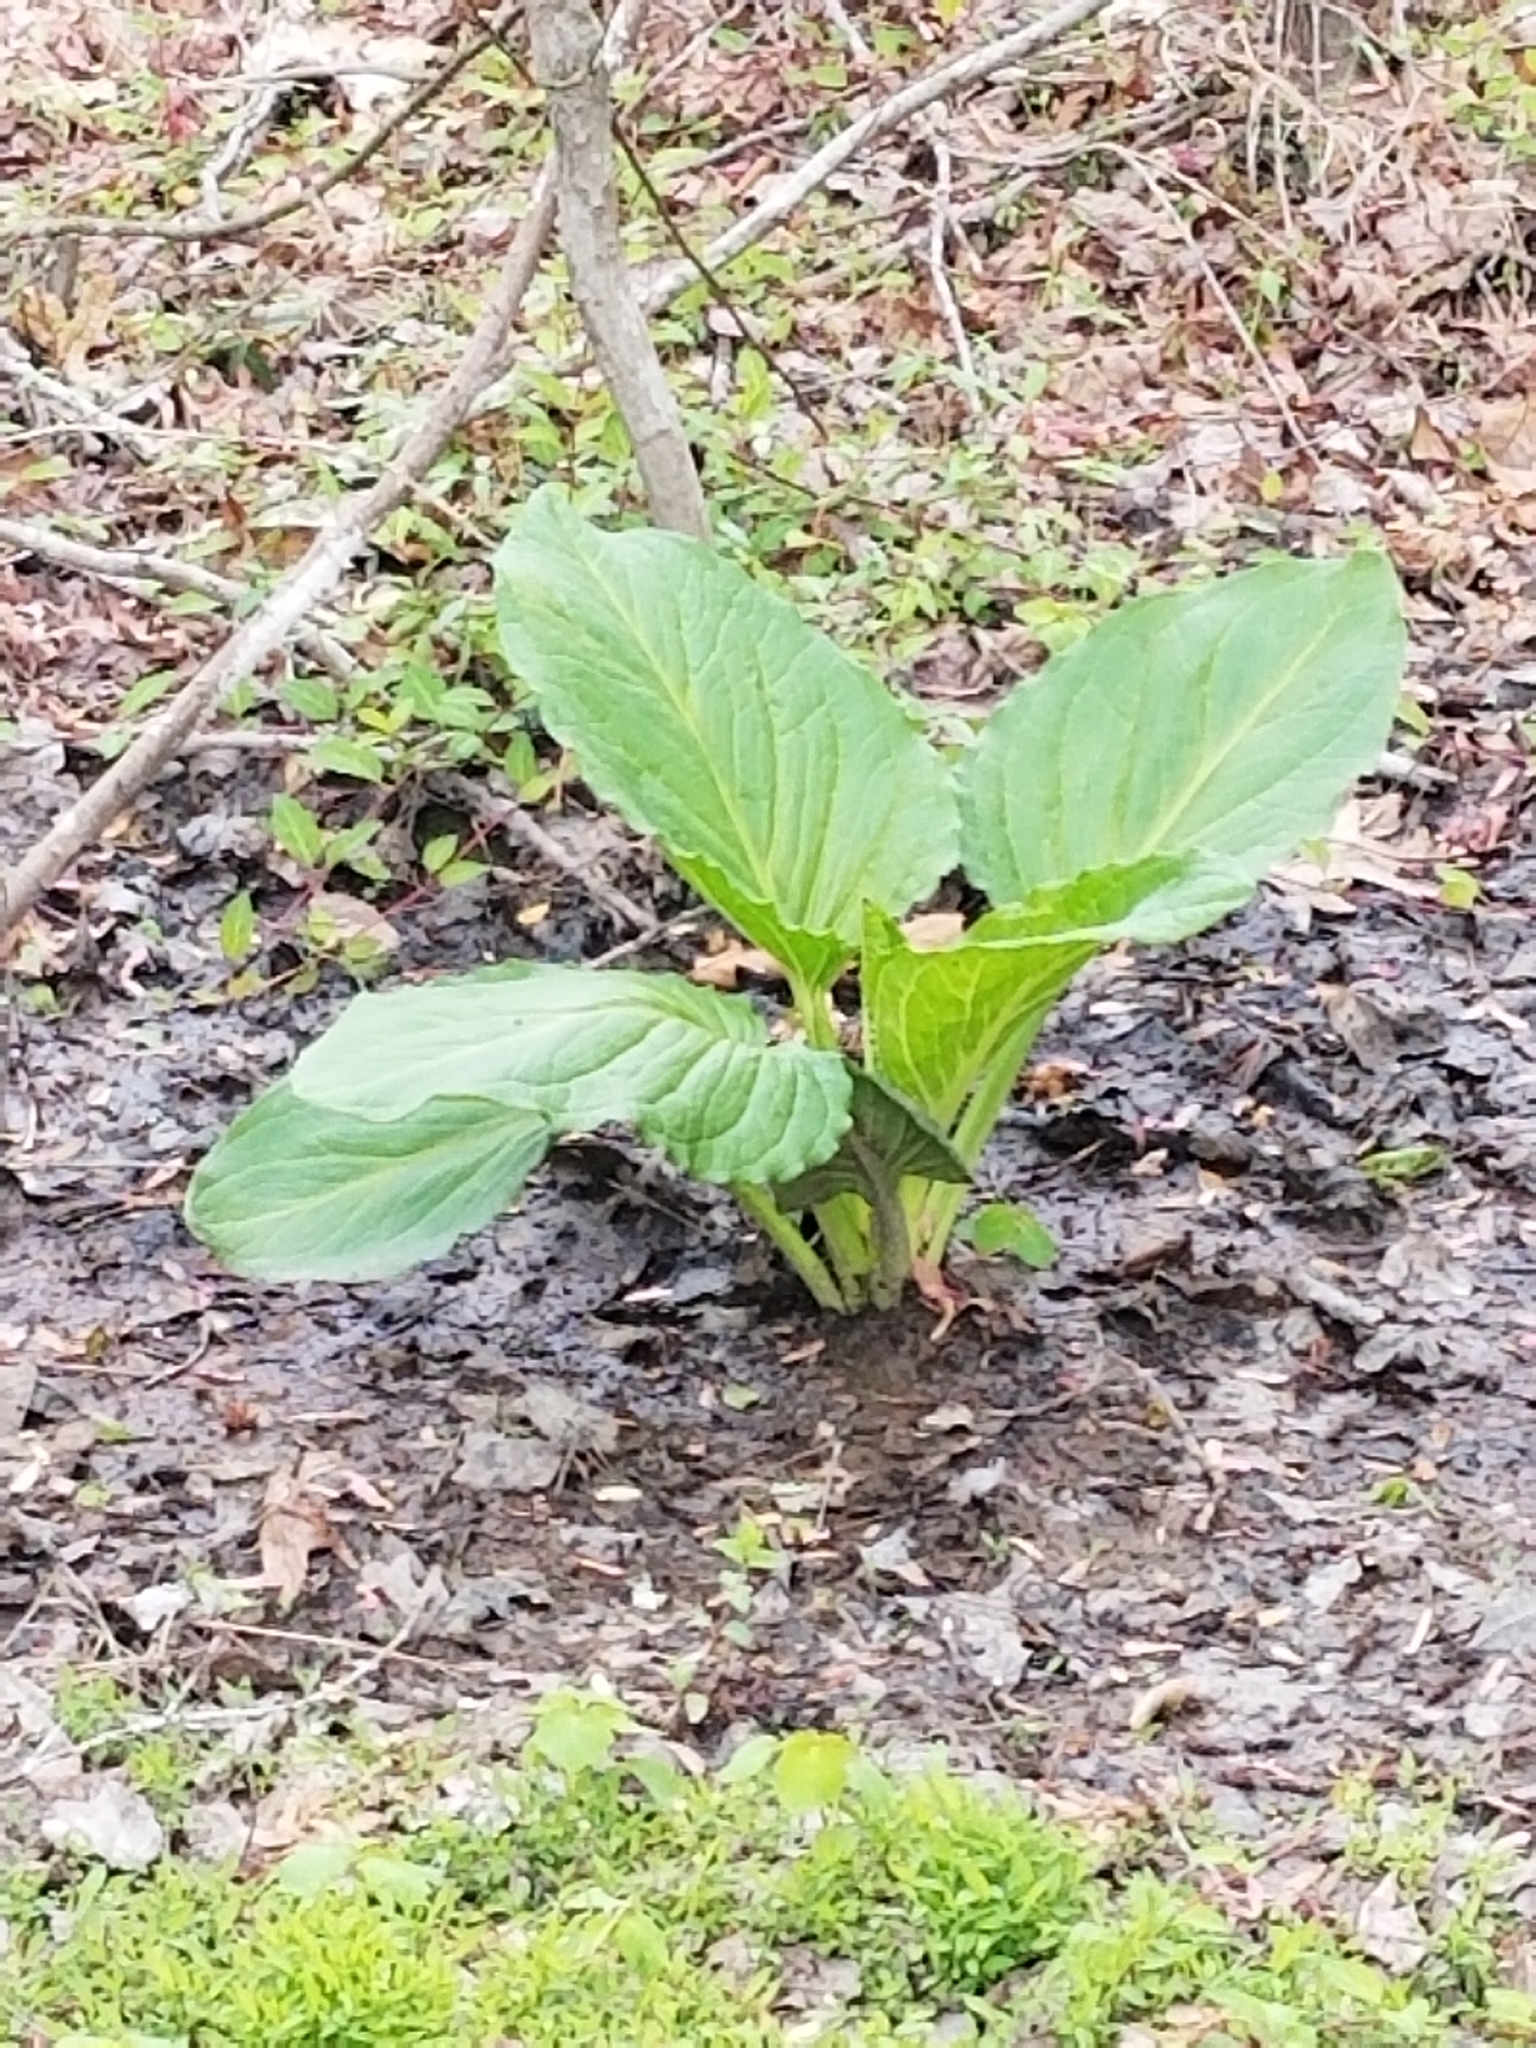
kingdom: Plantae
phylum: Tracheophyta
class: Liliopsida
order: Alismatales
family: Araceae
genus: Symplocarpus
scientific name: Symplocarpus foetidus
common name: Eastern skunk cabbage
